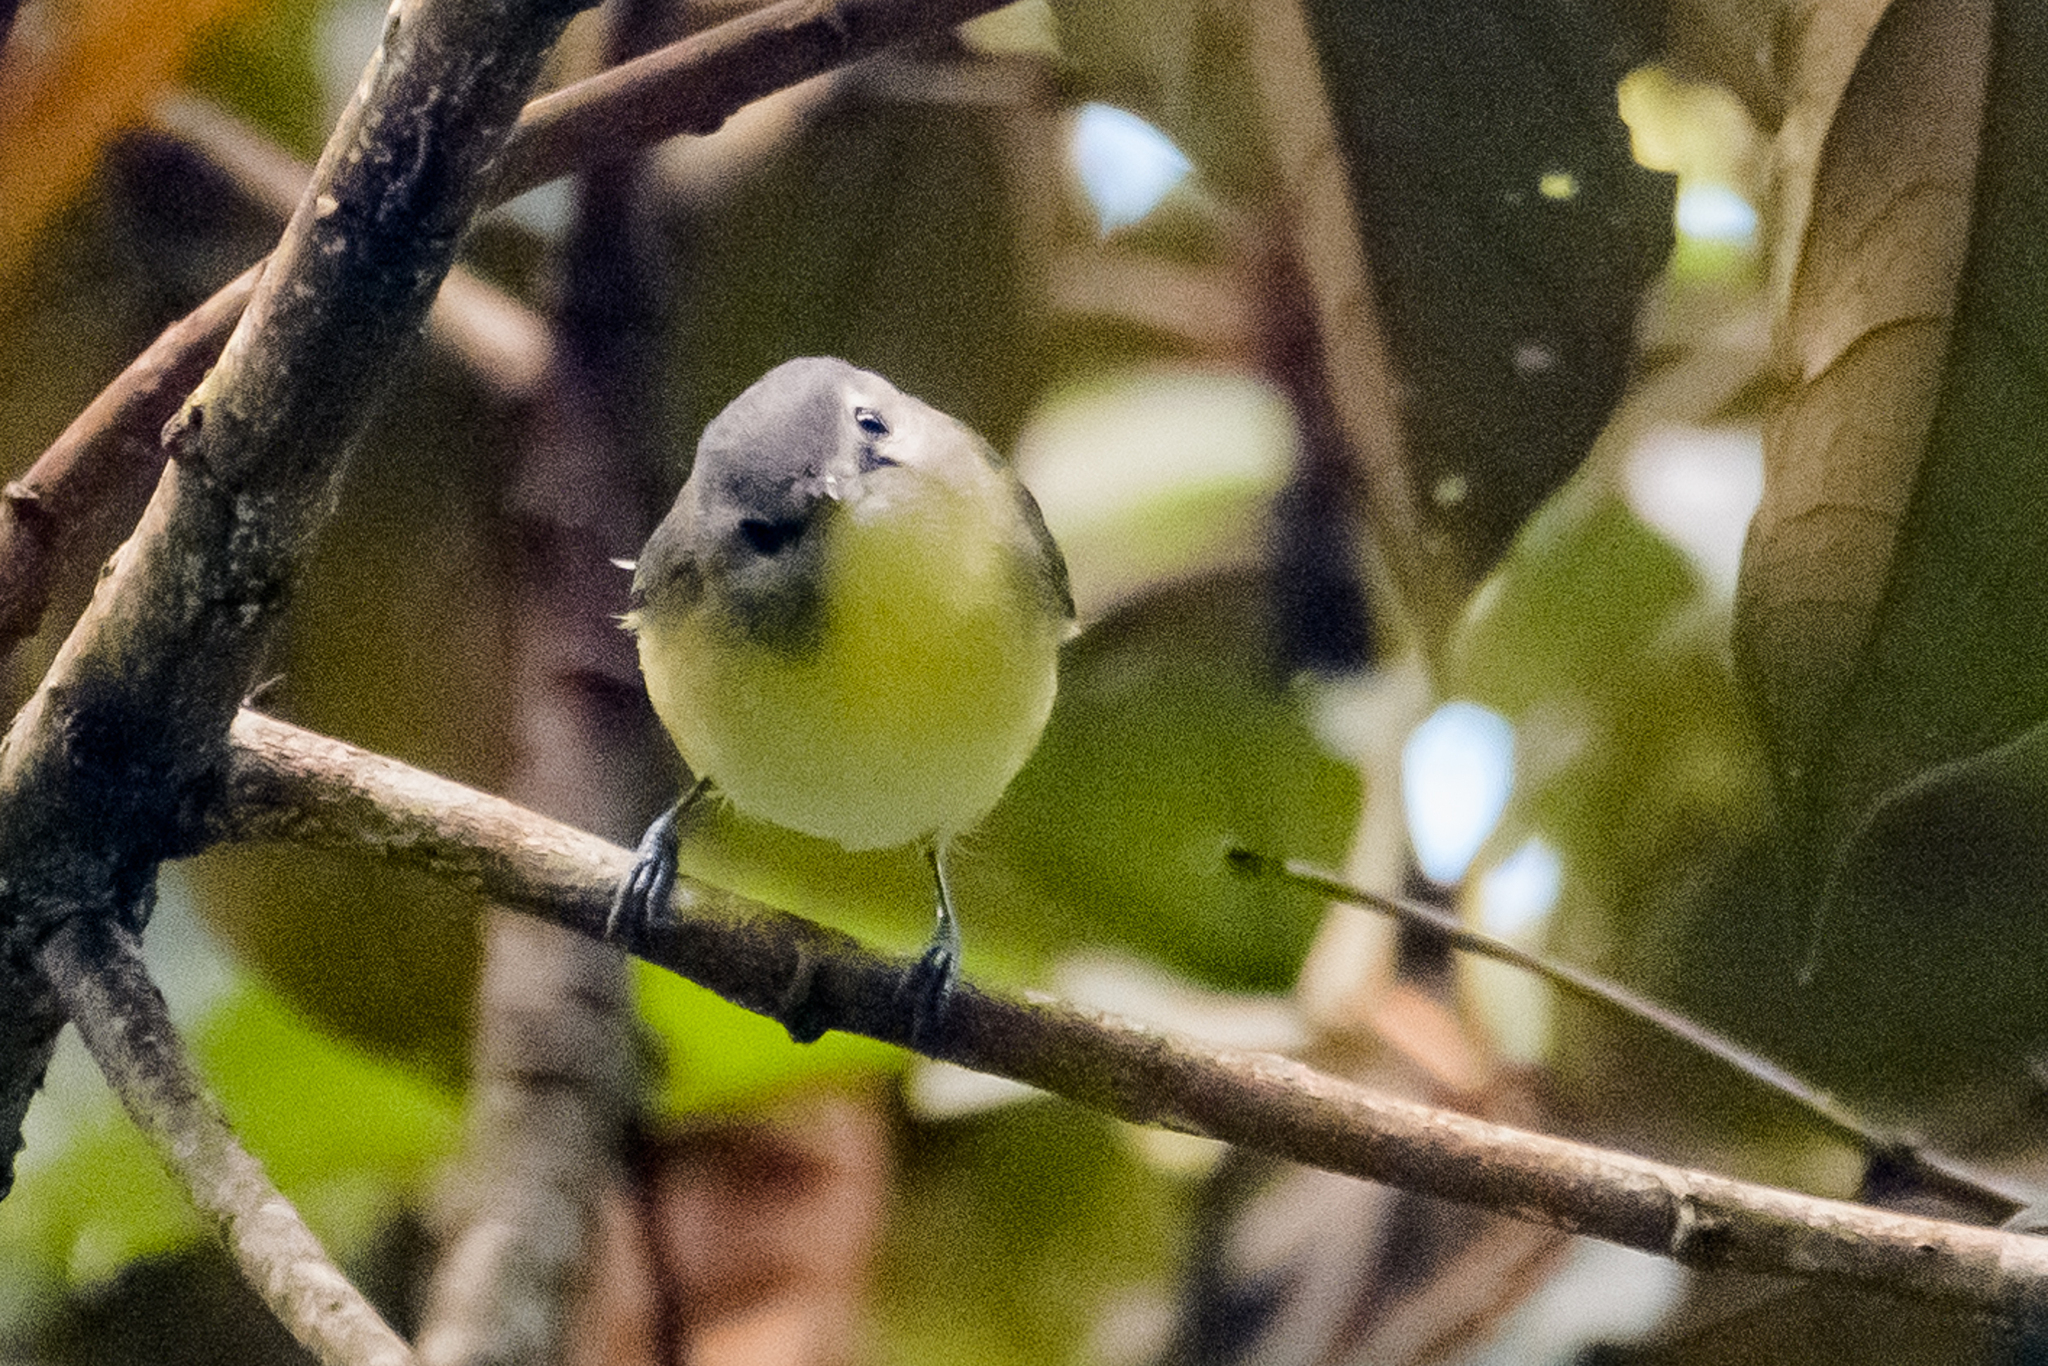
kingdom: Animalia
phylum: Chordata
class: Aves
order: Passeriformes
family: Vireonidae
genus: Vireo
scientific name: Vireo philadelphicus
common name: Philadelphia vireo
